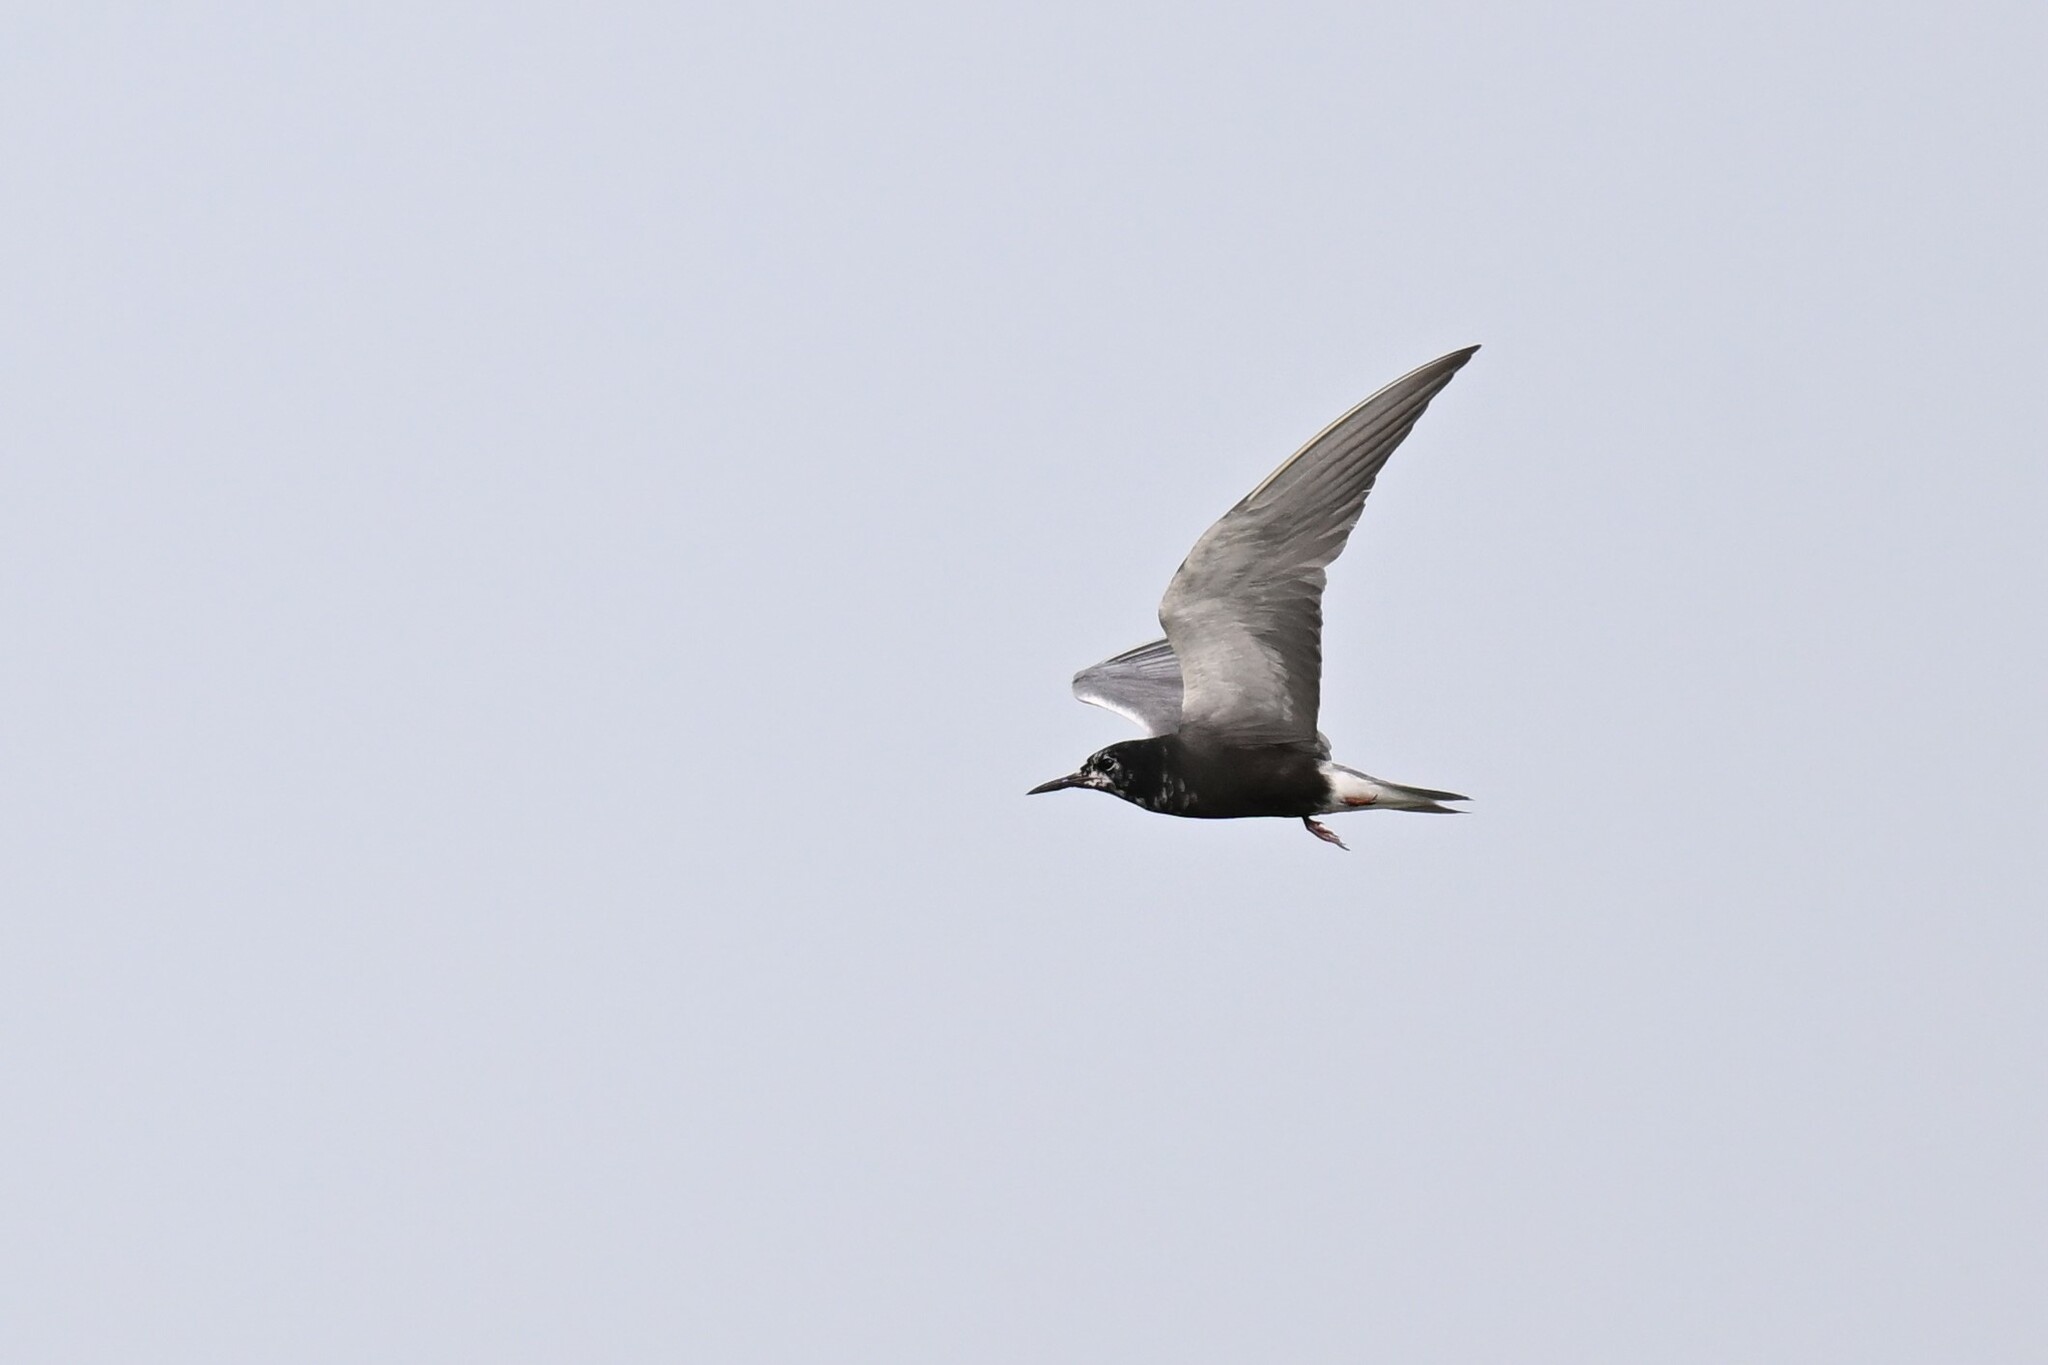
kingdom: Animalia
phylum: Chordata
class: Aves
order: Charadriiformes
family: Laridae
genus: Chlidonias
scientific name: Chlidonias niger
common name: Black tern
